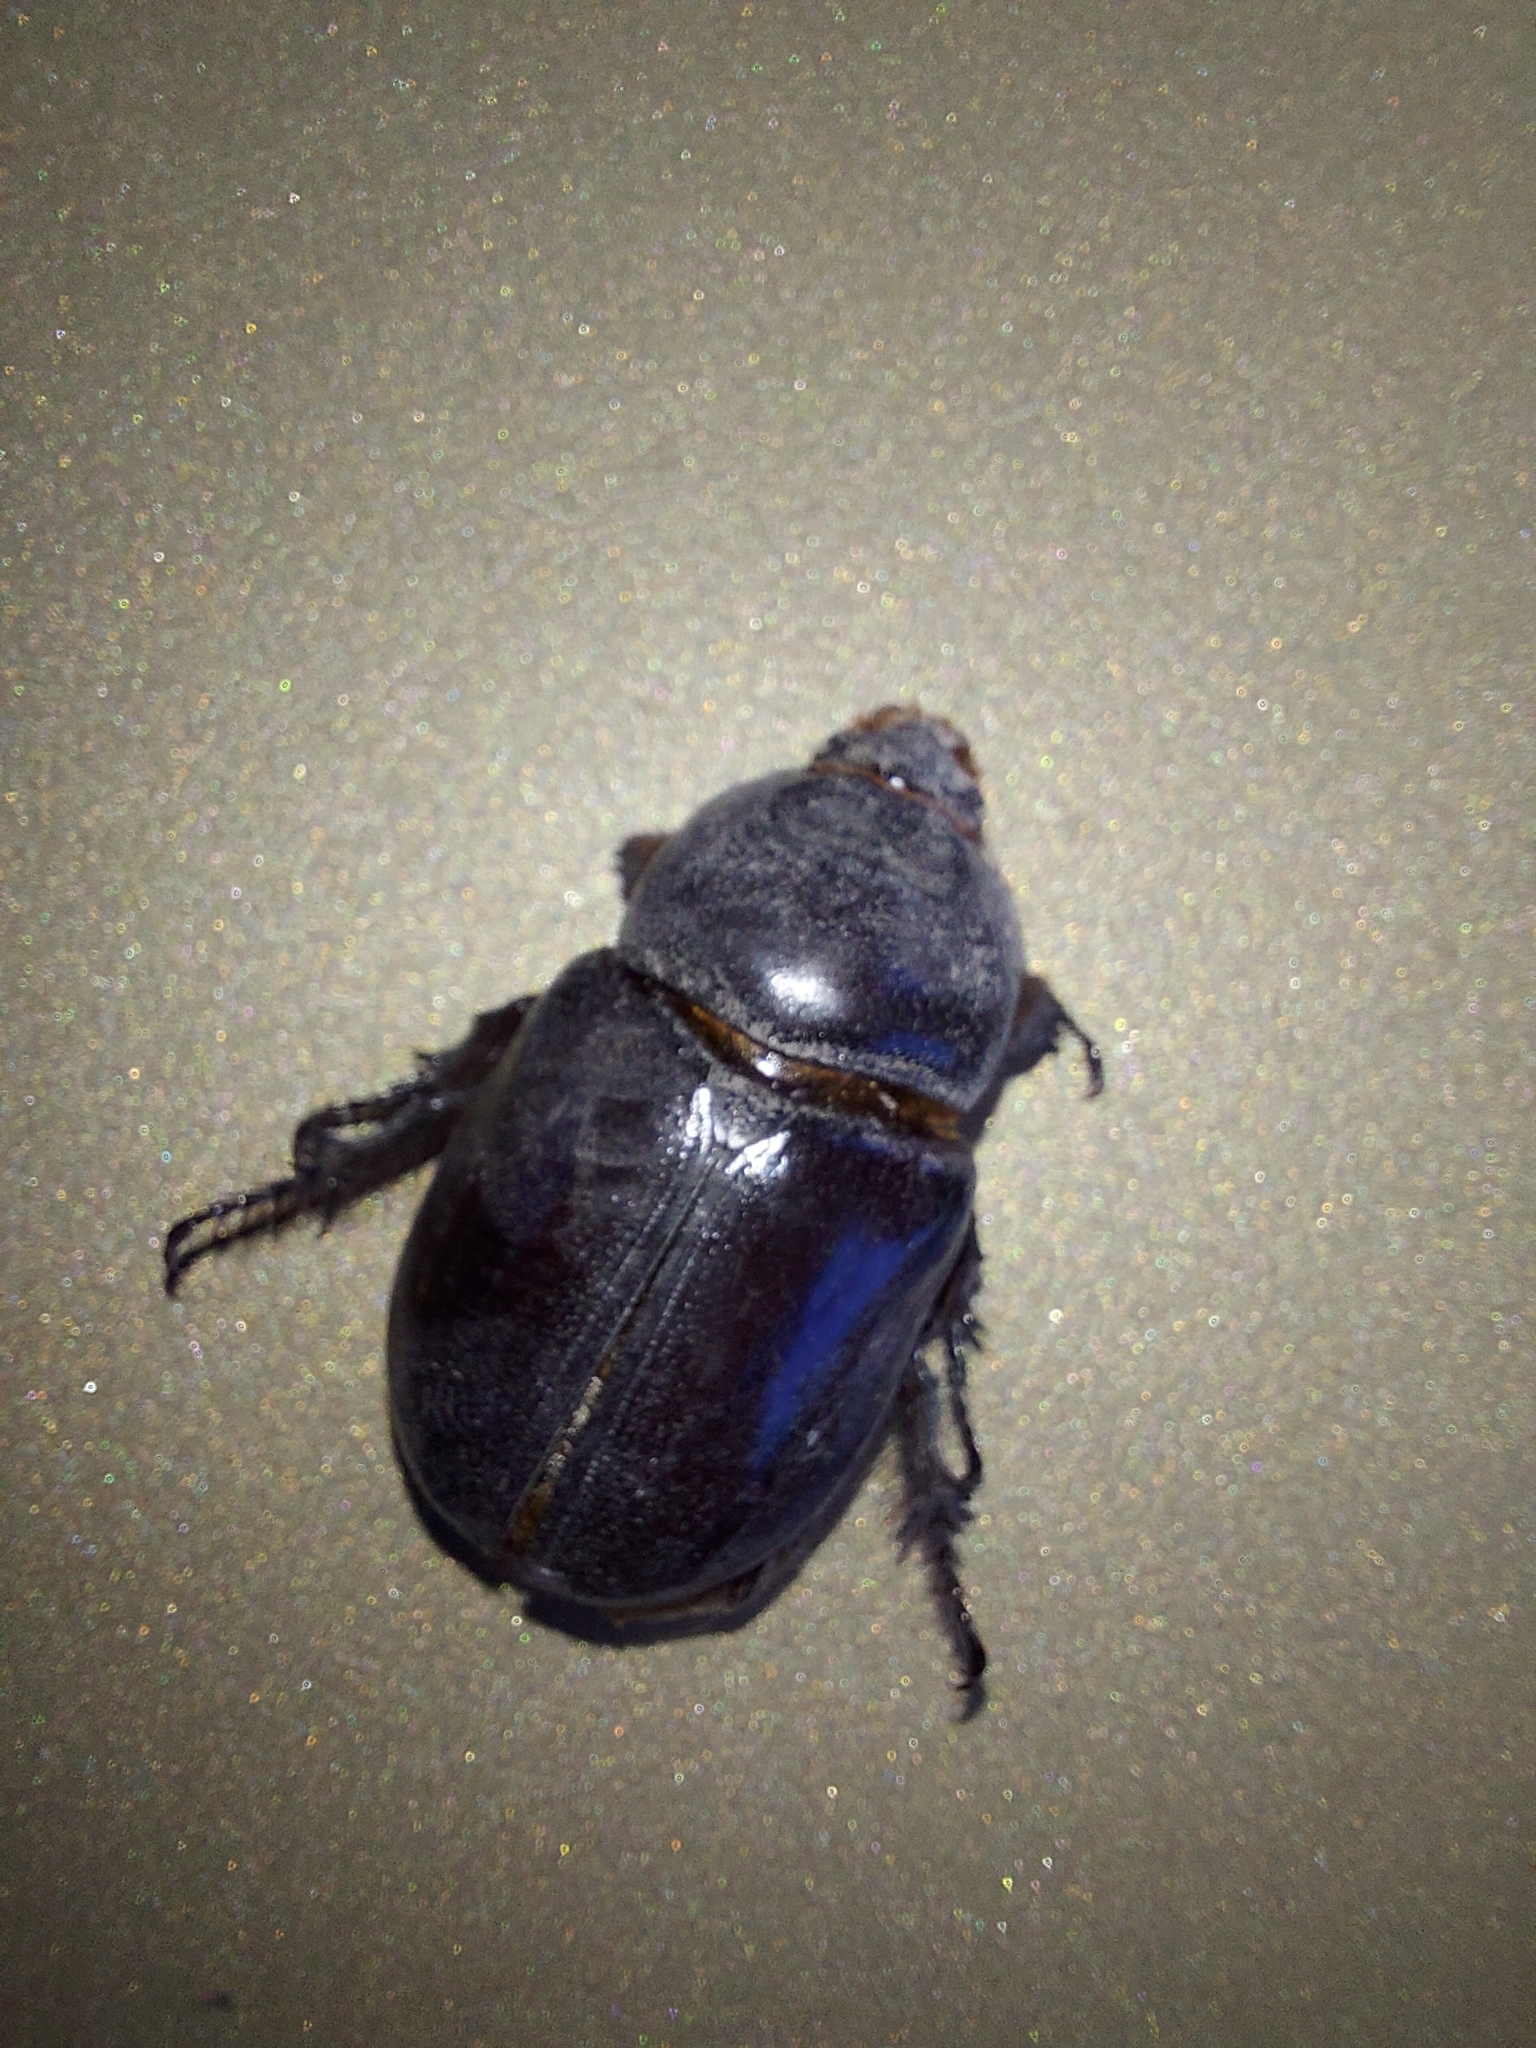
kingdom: Animalia
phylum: Arthropoda
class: Insecta
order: Coleoptera
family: Scarabaeidae
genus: Oryctes
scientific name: Oryctes nasicornis
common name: European rhinoceros beetle
